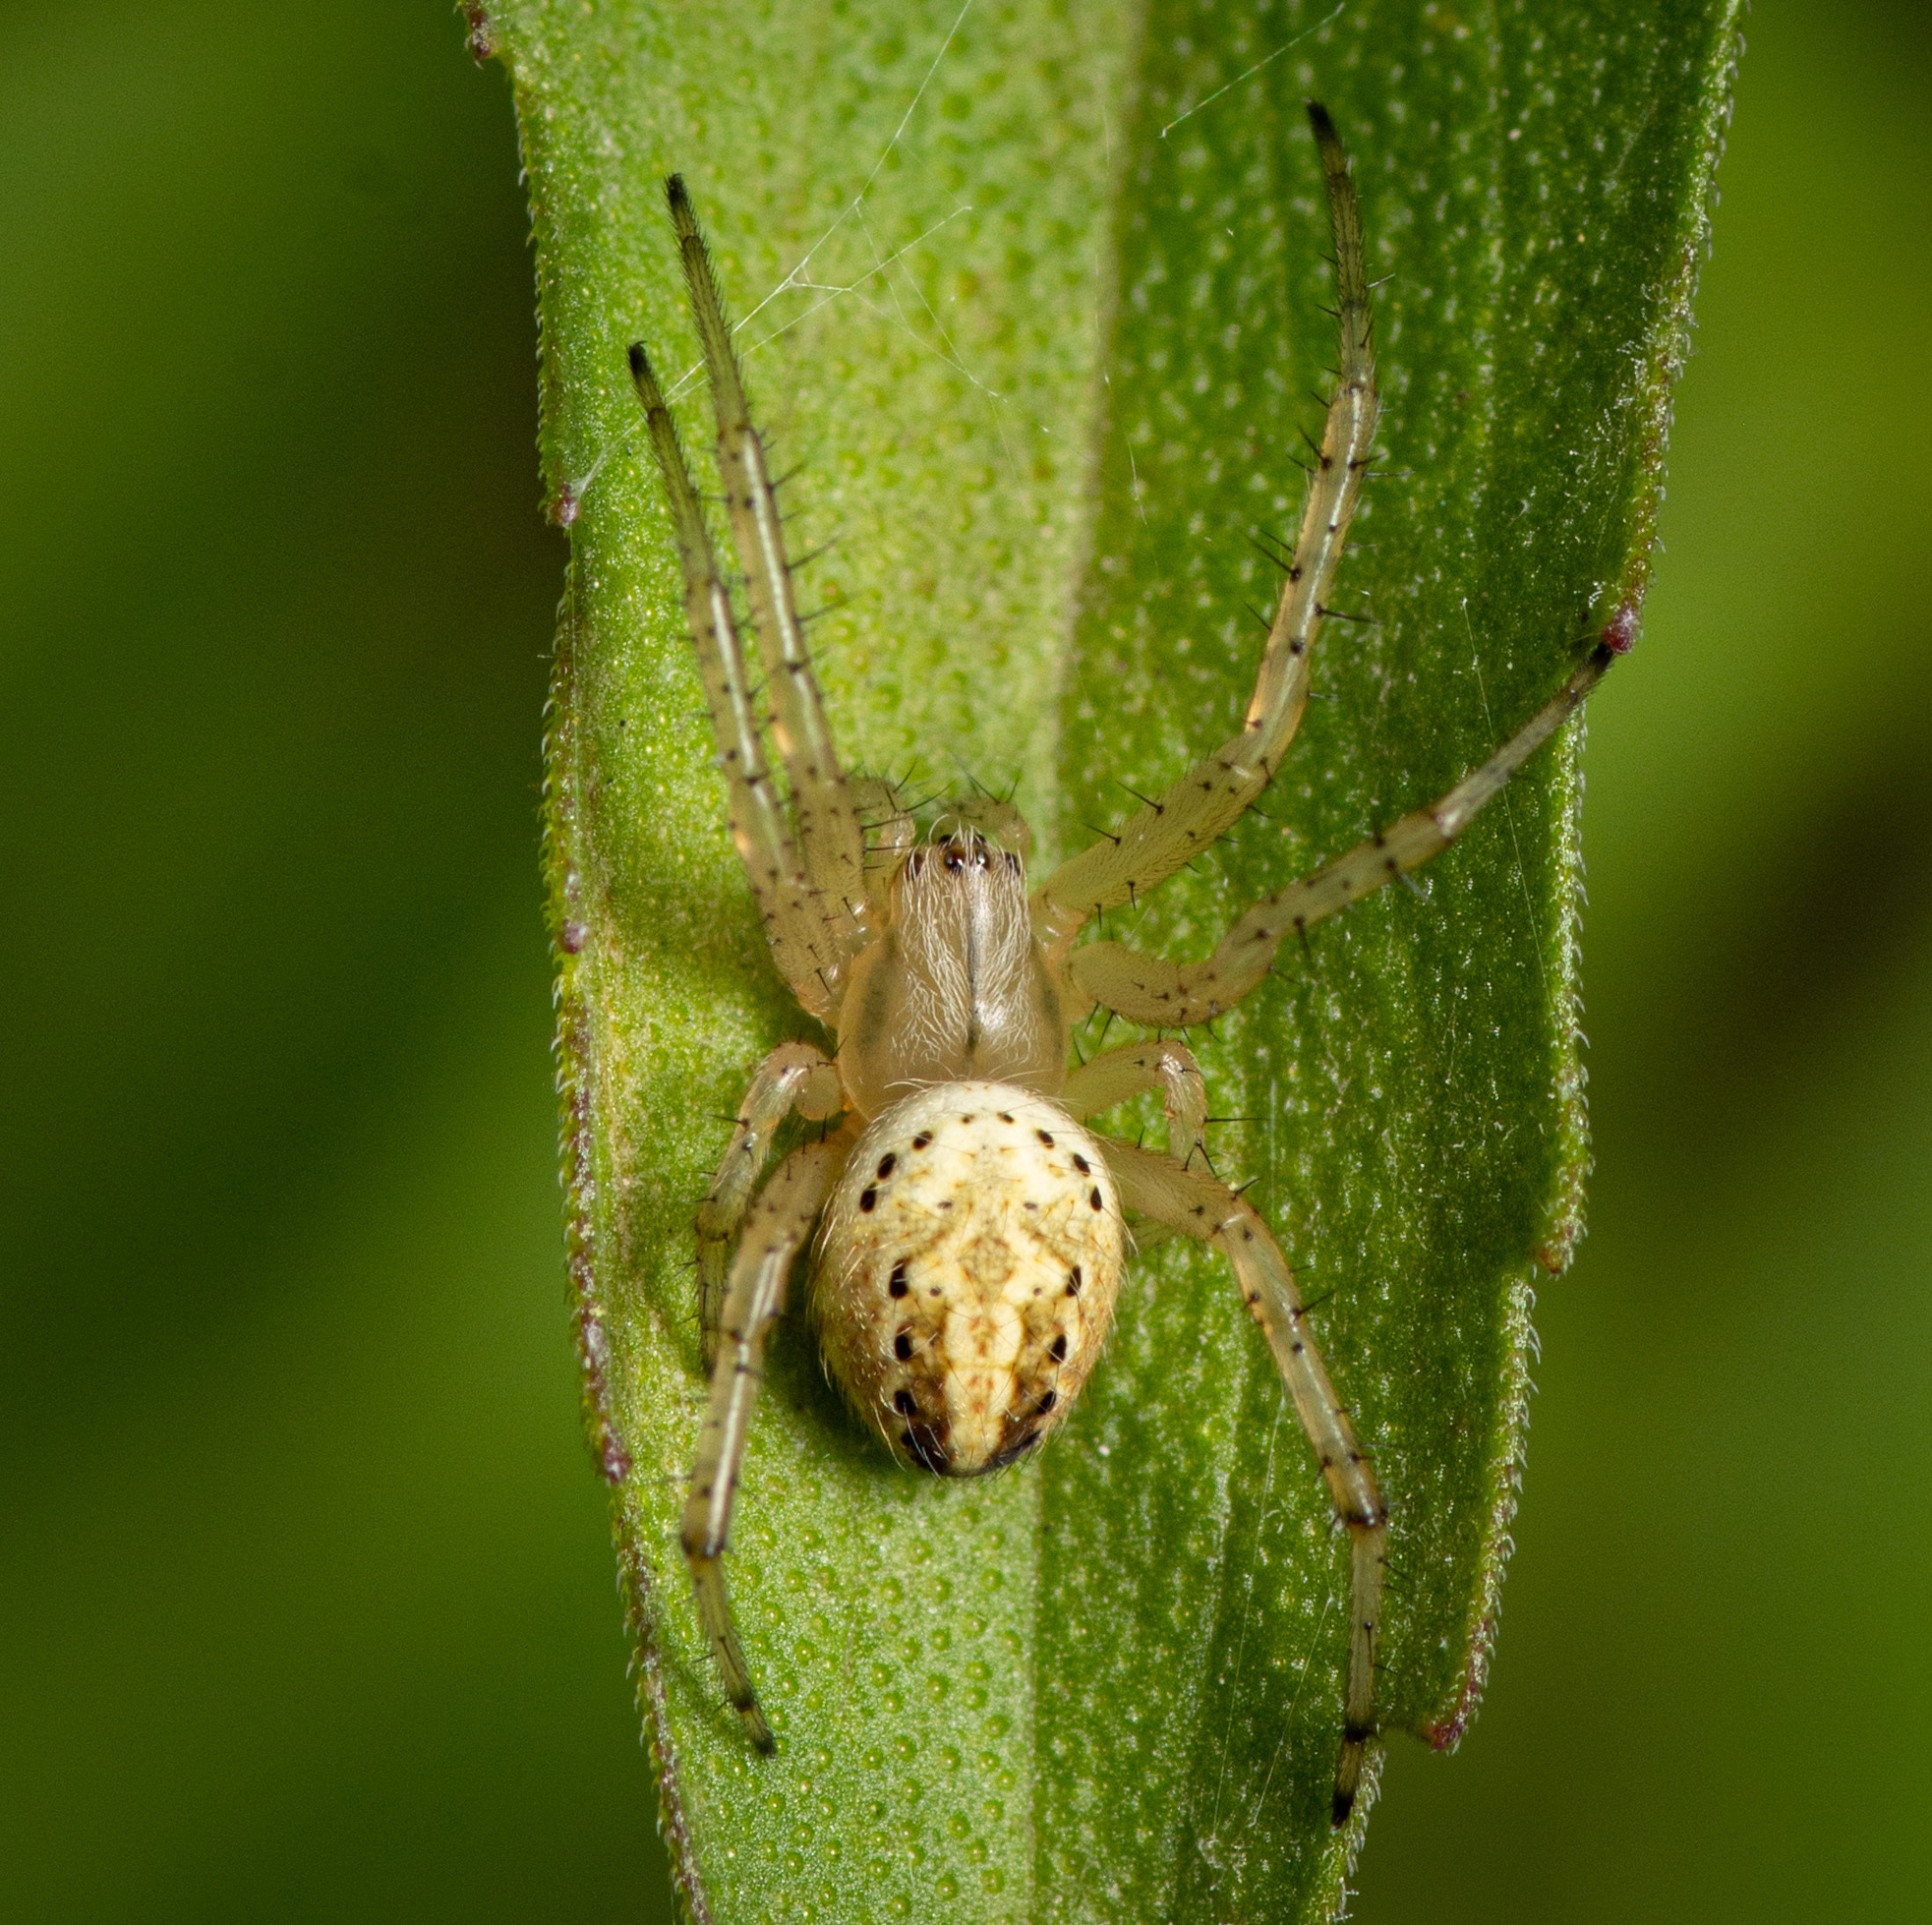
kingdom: Animalia
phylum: Arthropoda
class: Arachnida
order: Araneae
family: Araneidae
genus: Neoscona
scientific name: Neoscona oaxacensis
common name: Orb weavers
